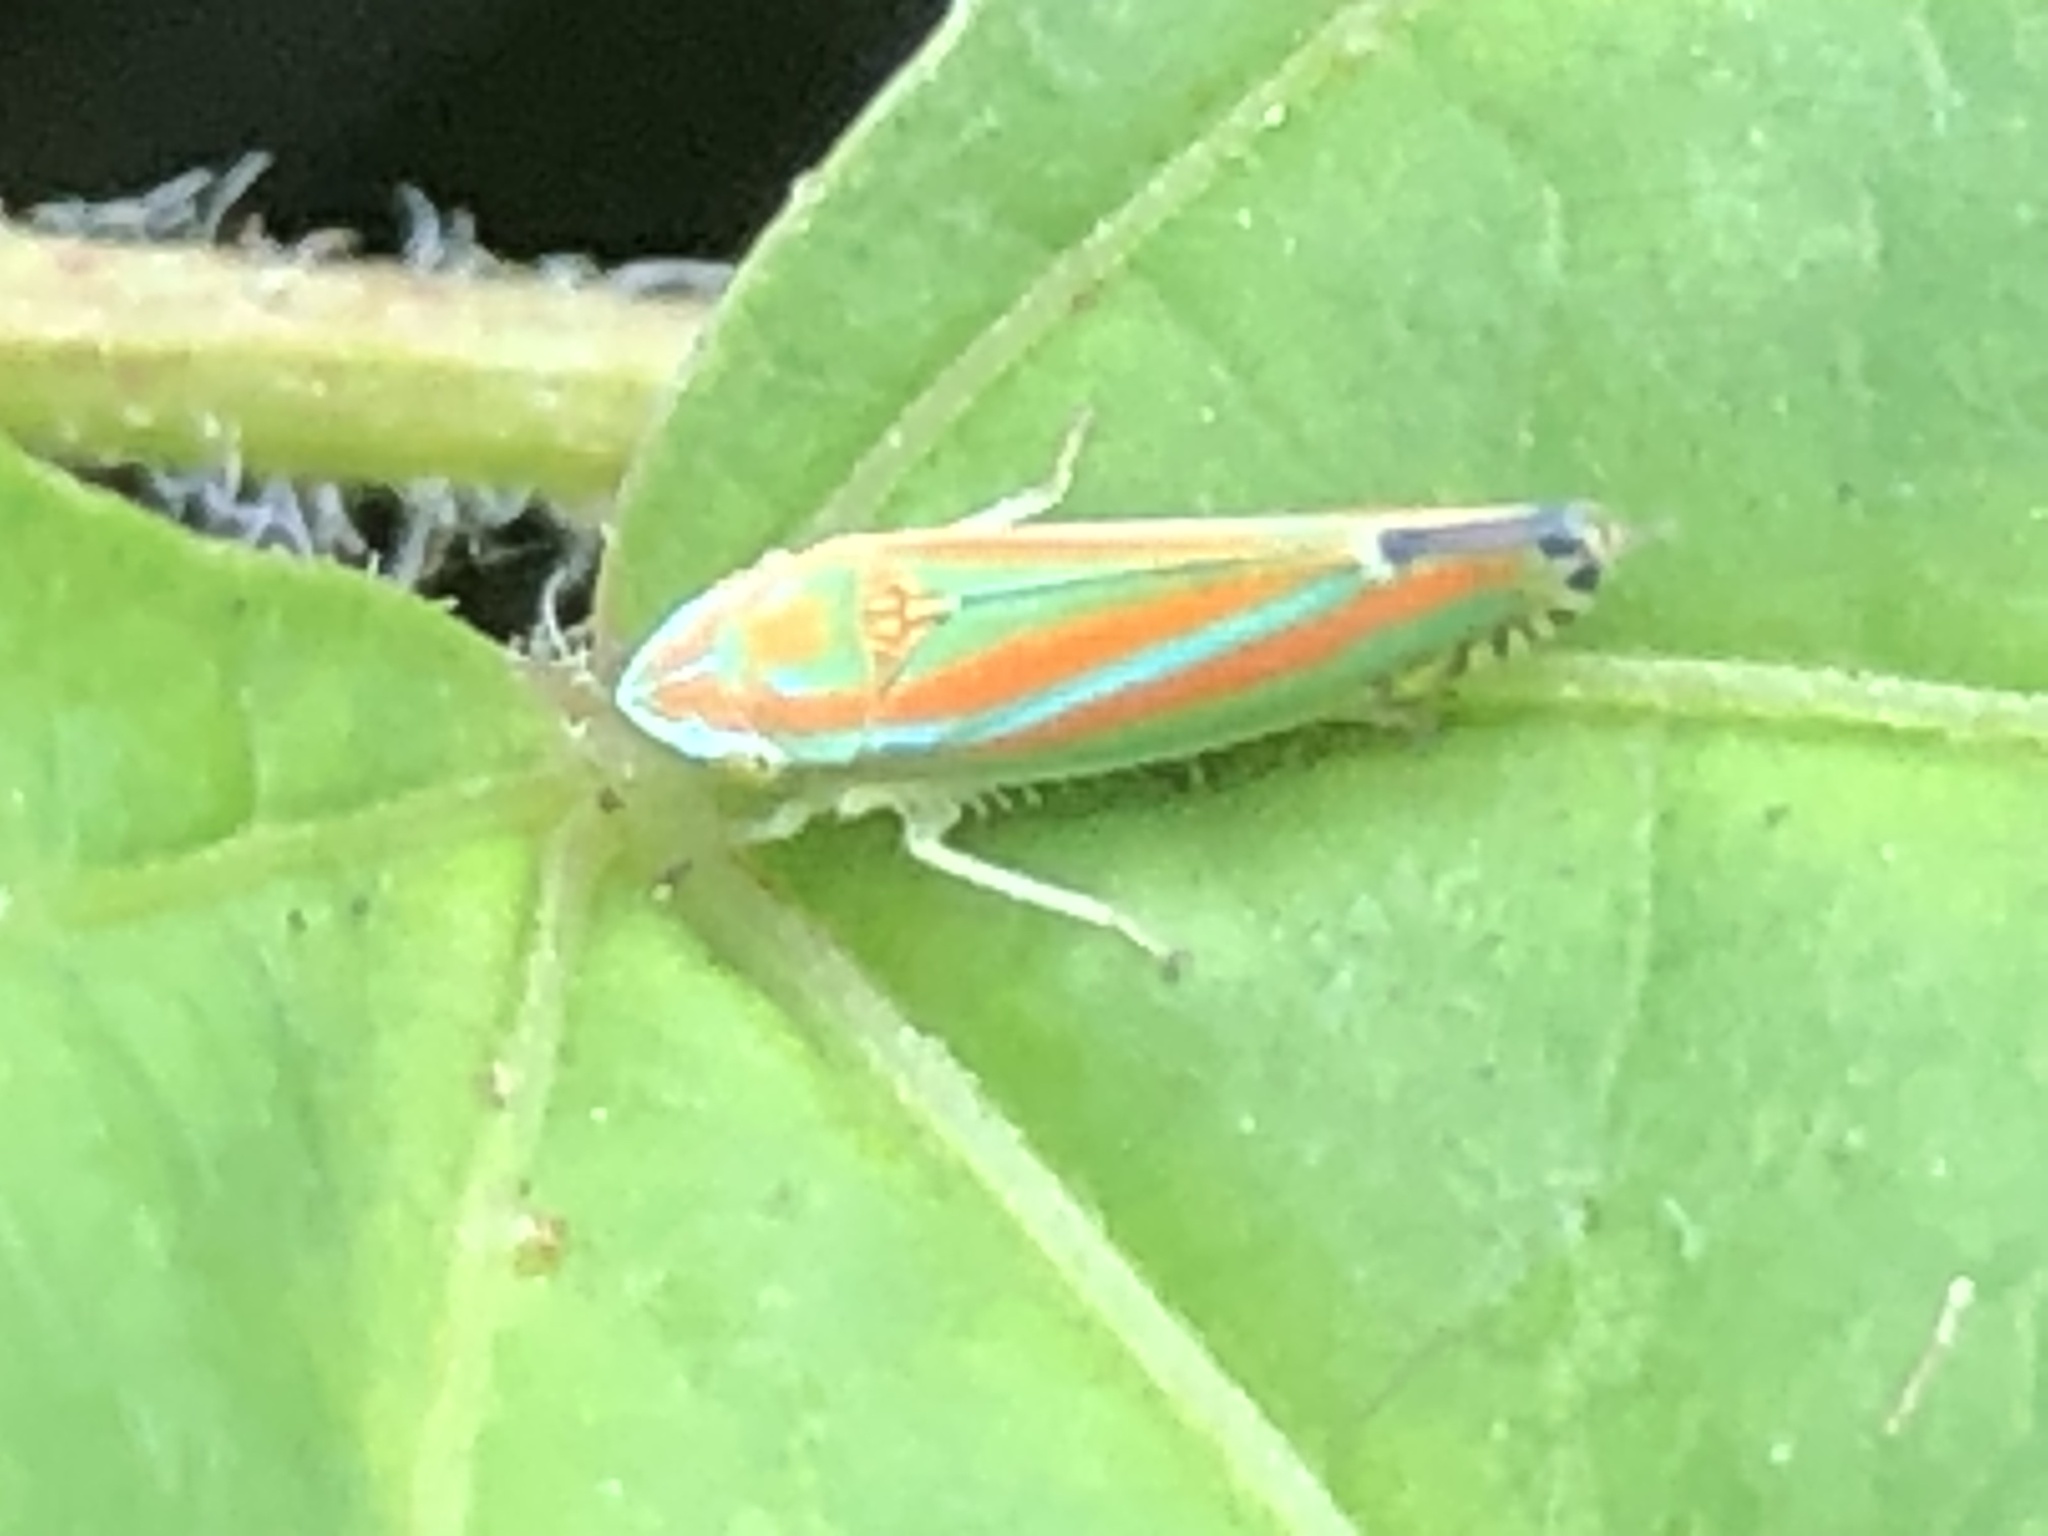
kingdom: Animalia
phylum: Arthropoda
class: Insecta
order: Hemiptera
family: Cicadellidae
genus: Graphocephala
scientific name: Graphocephala versuta
